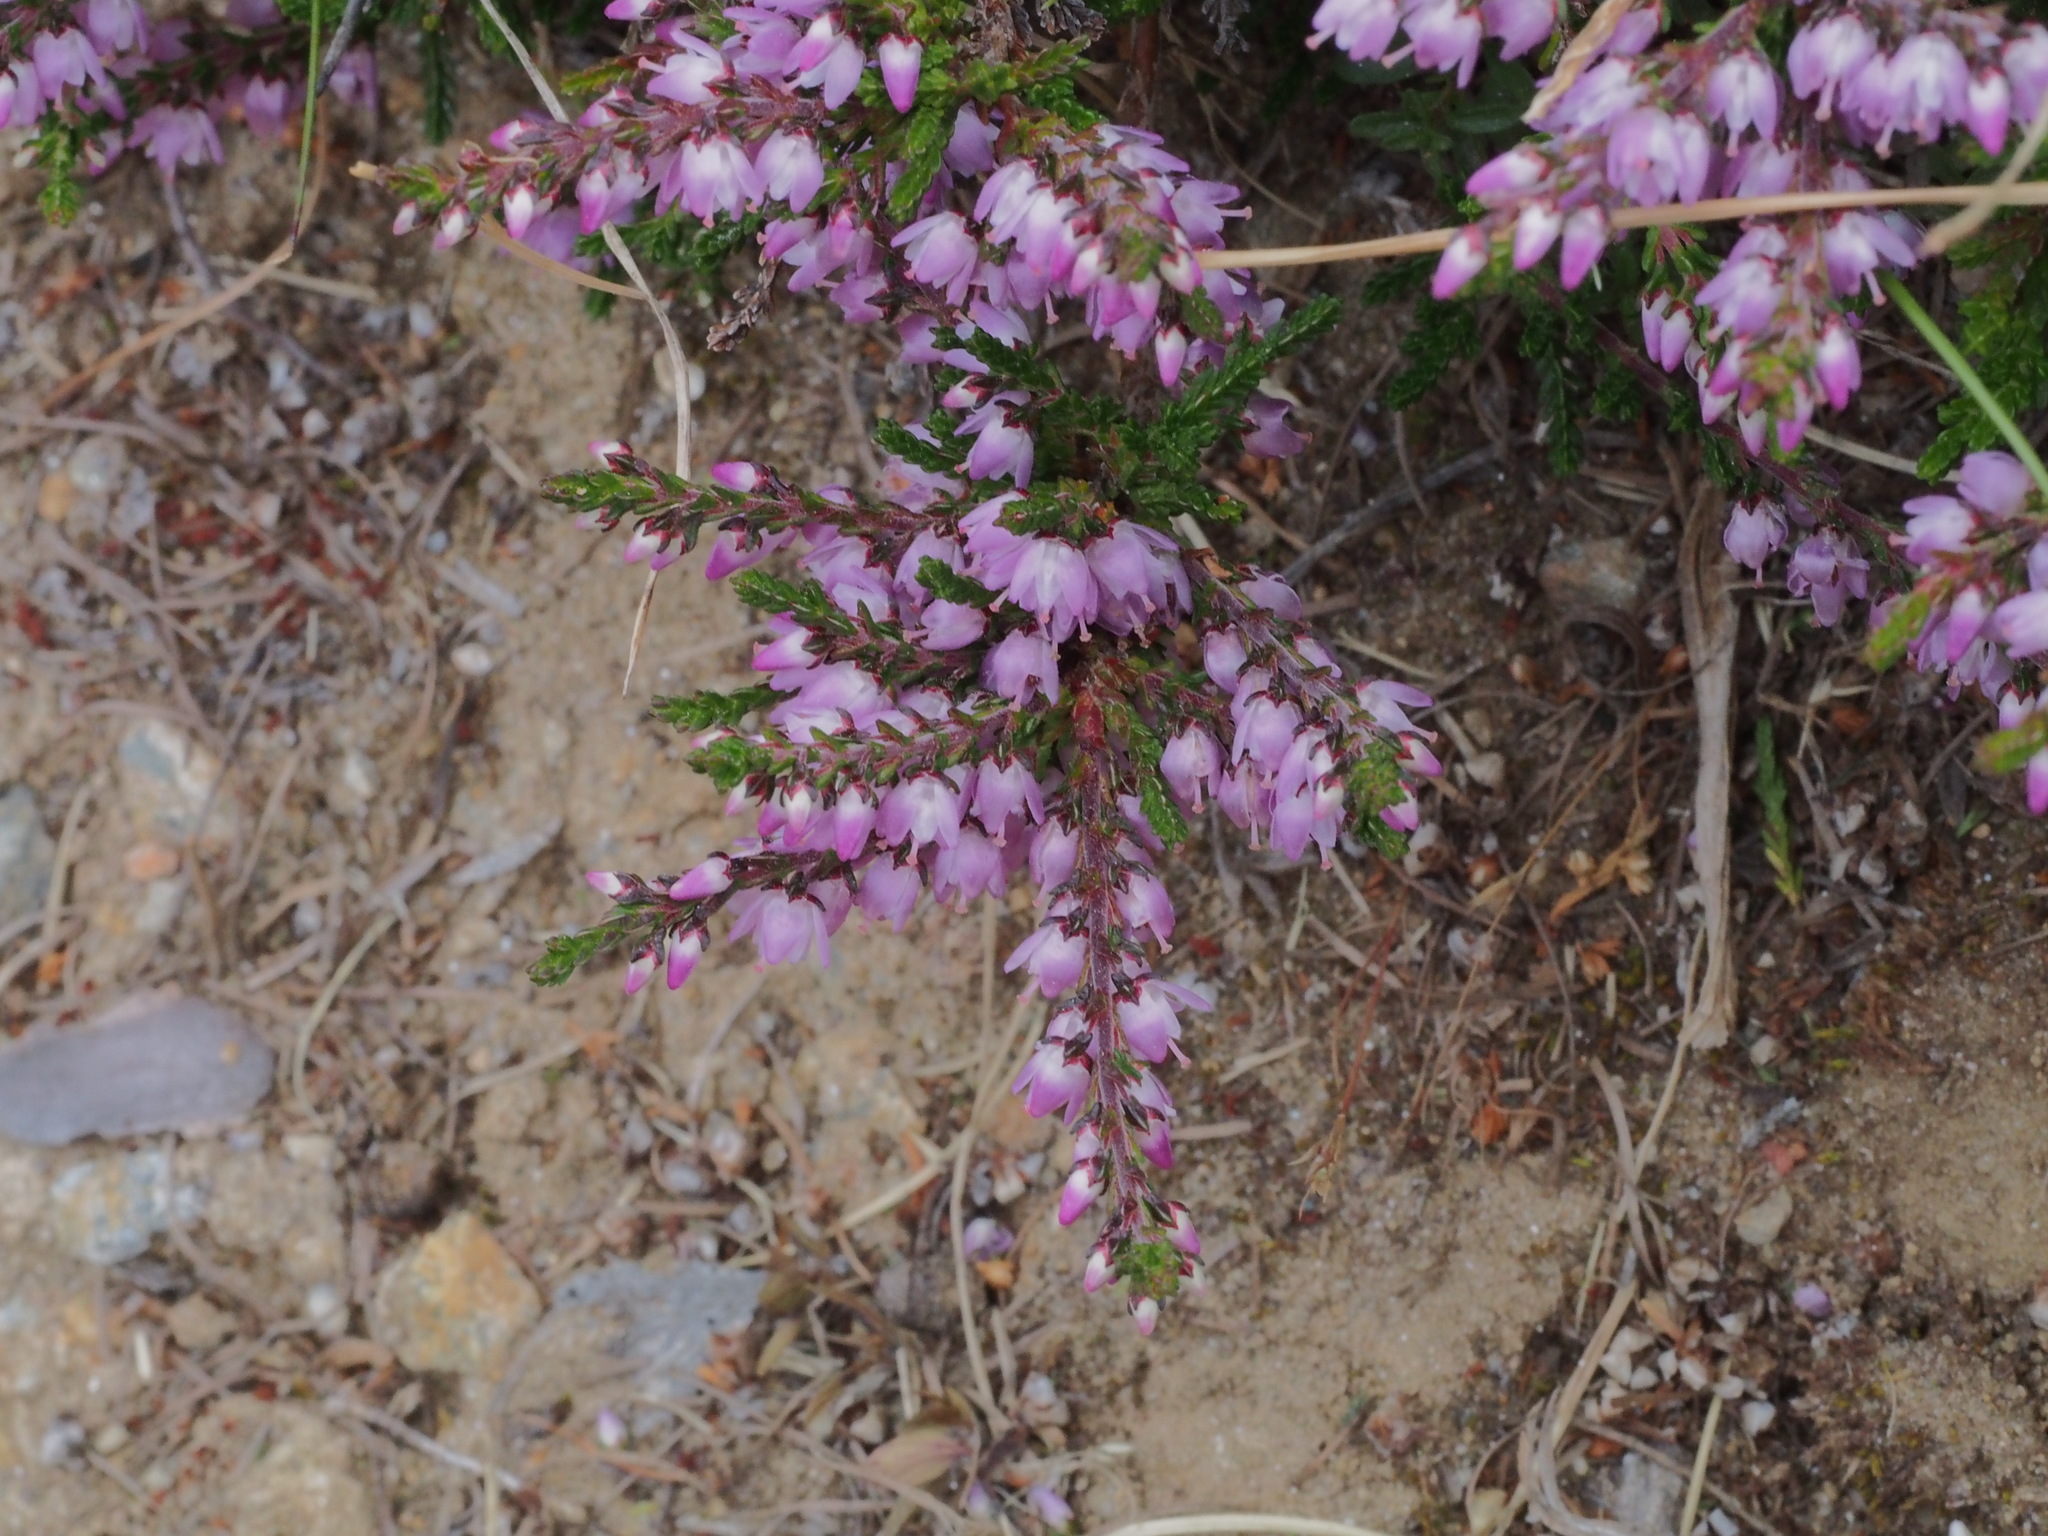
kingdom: Plantae
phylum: Tracheophyta
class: Magnoliopsida
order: Ericales
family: Ericaceae
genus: Calluna
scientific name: Calluna vulgaris
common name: Heather
